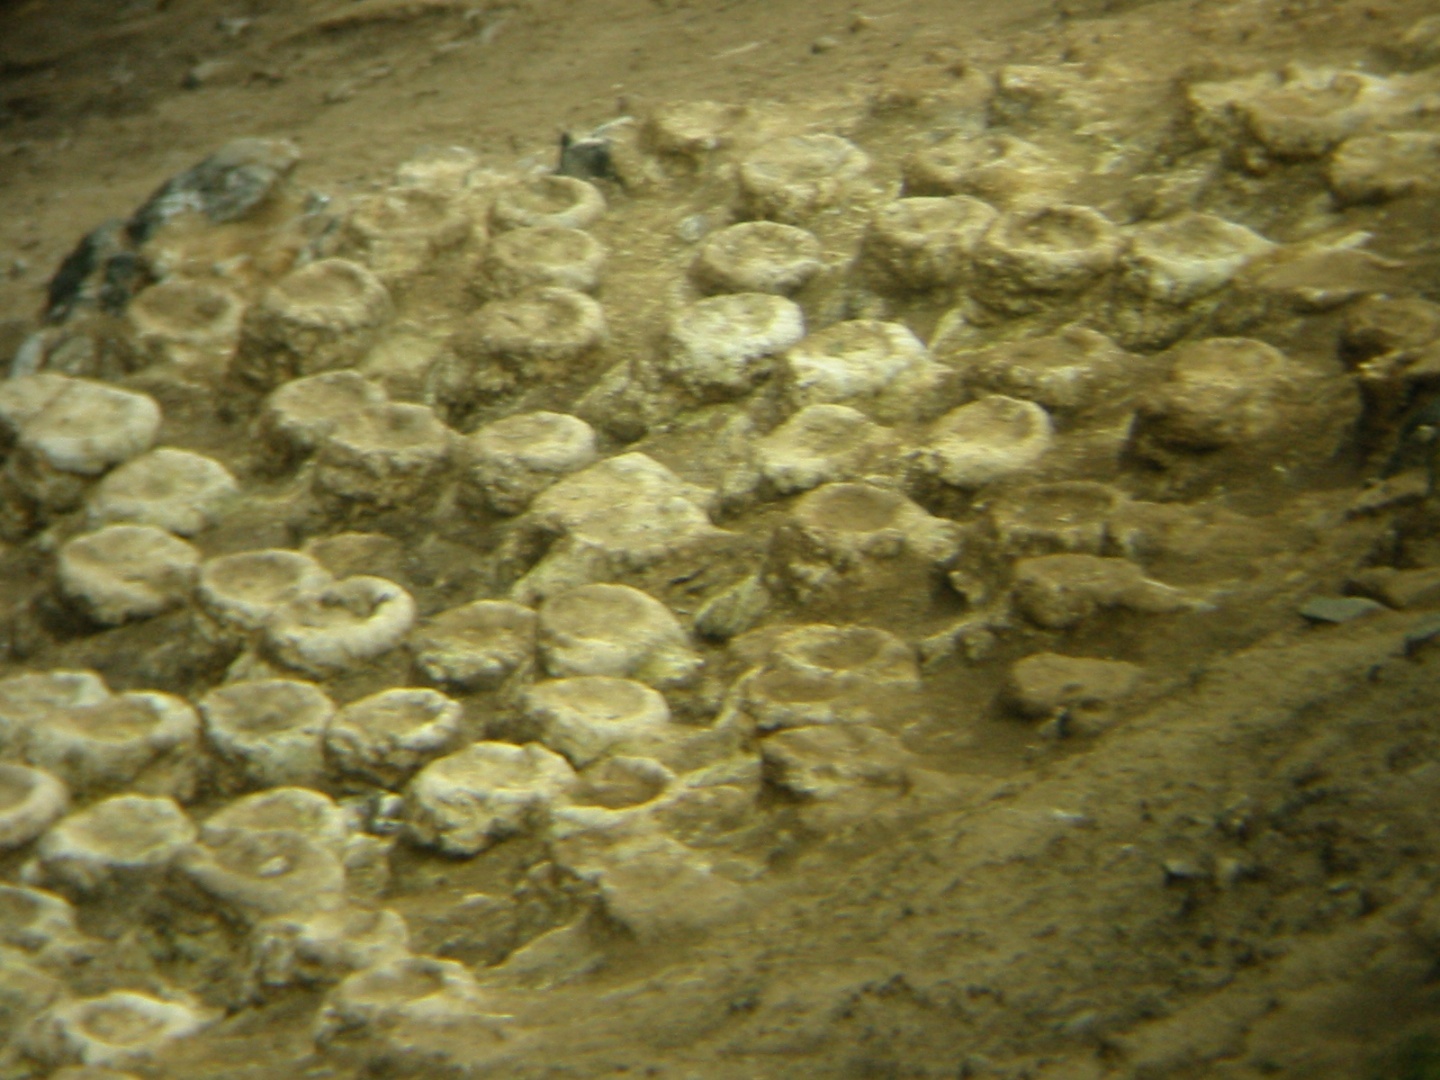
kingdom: Animalia
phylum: Chordata
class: Aves
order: Suliformes
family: Phalacrocoracidae
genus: Leucocarbo
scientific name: Leucocarbo chalconotus
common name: Stewart shag
